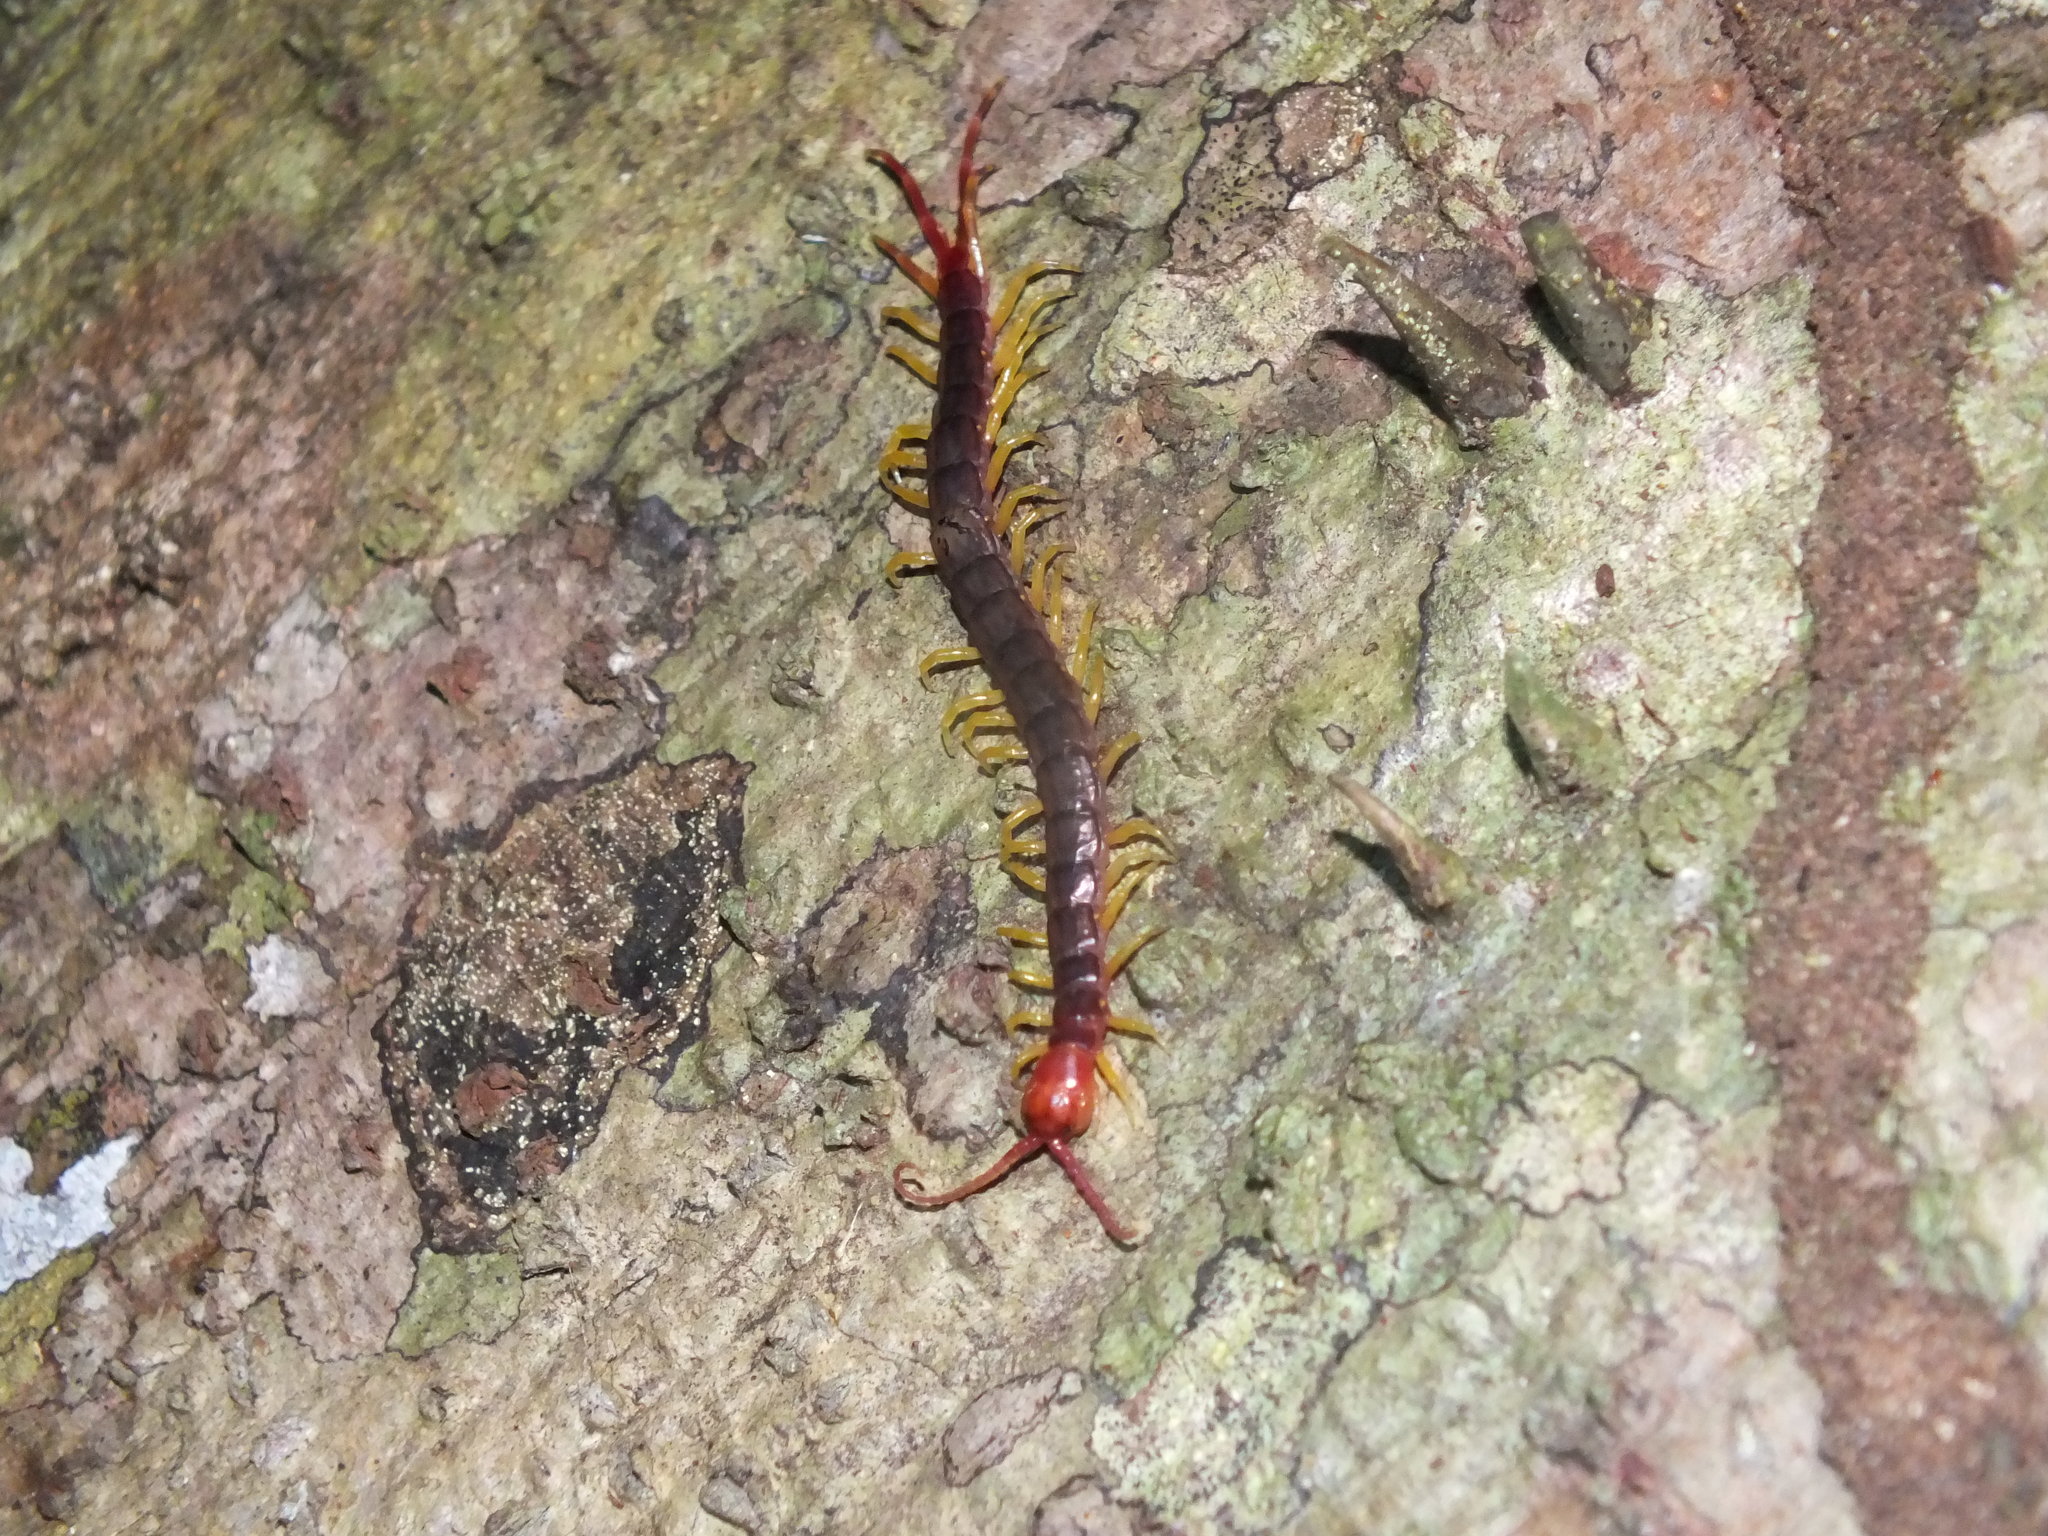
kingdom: Animalia
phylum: Arthropoda
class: Chilopoda
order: Scolopendromorpha
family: Scolopendridae
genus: Otostigmus
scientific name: Otostigmus rex
